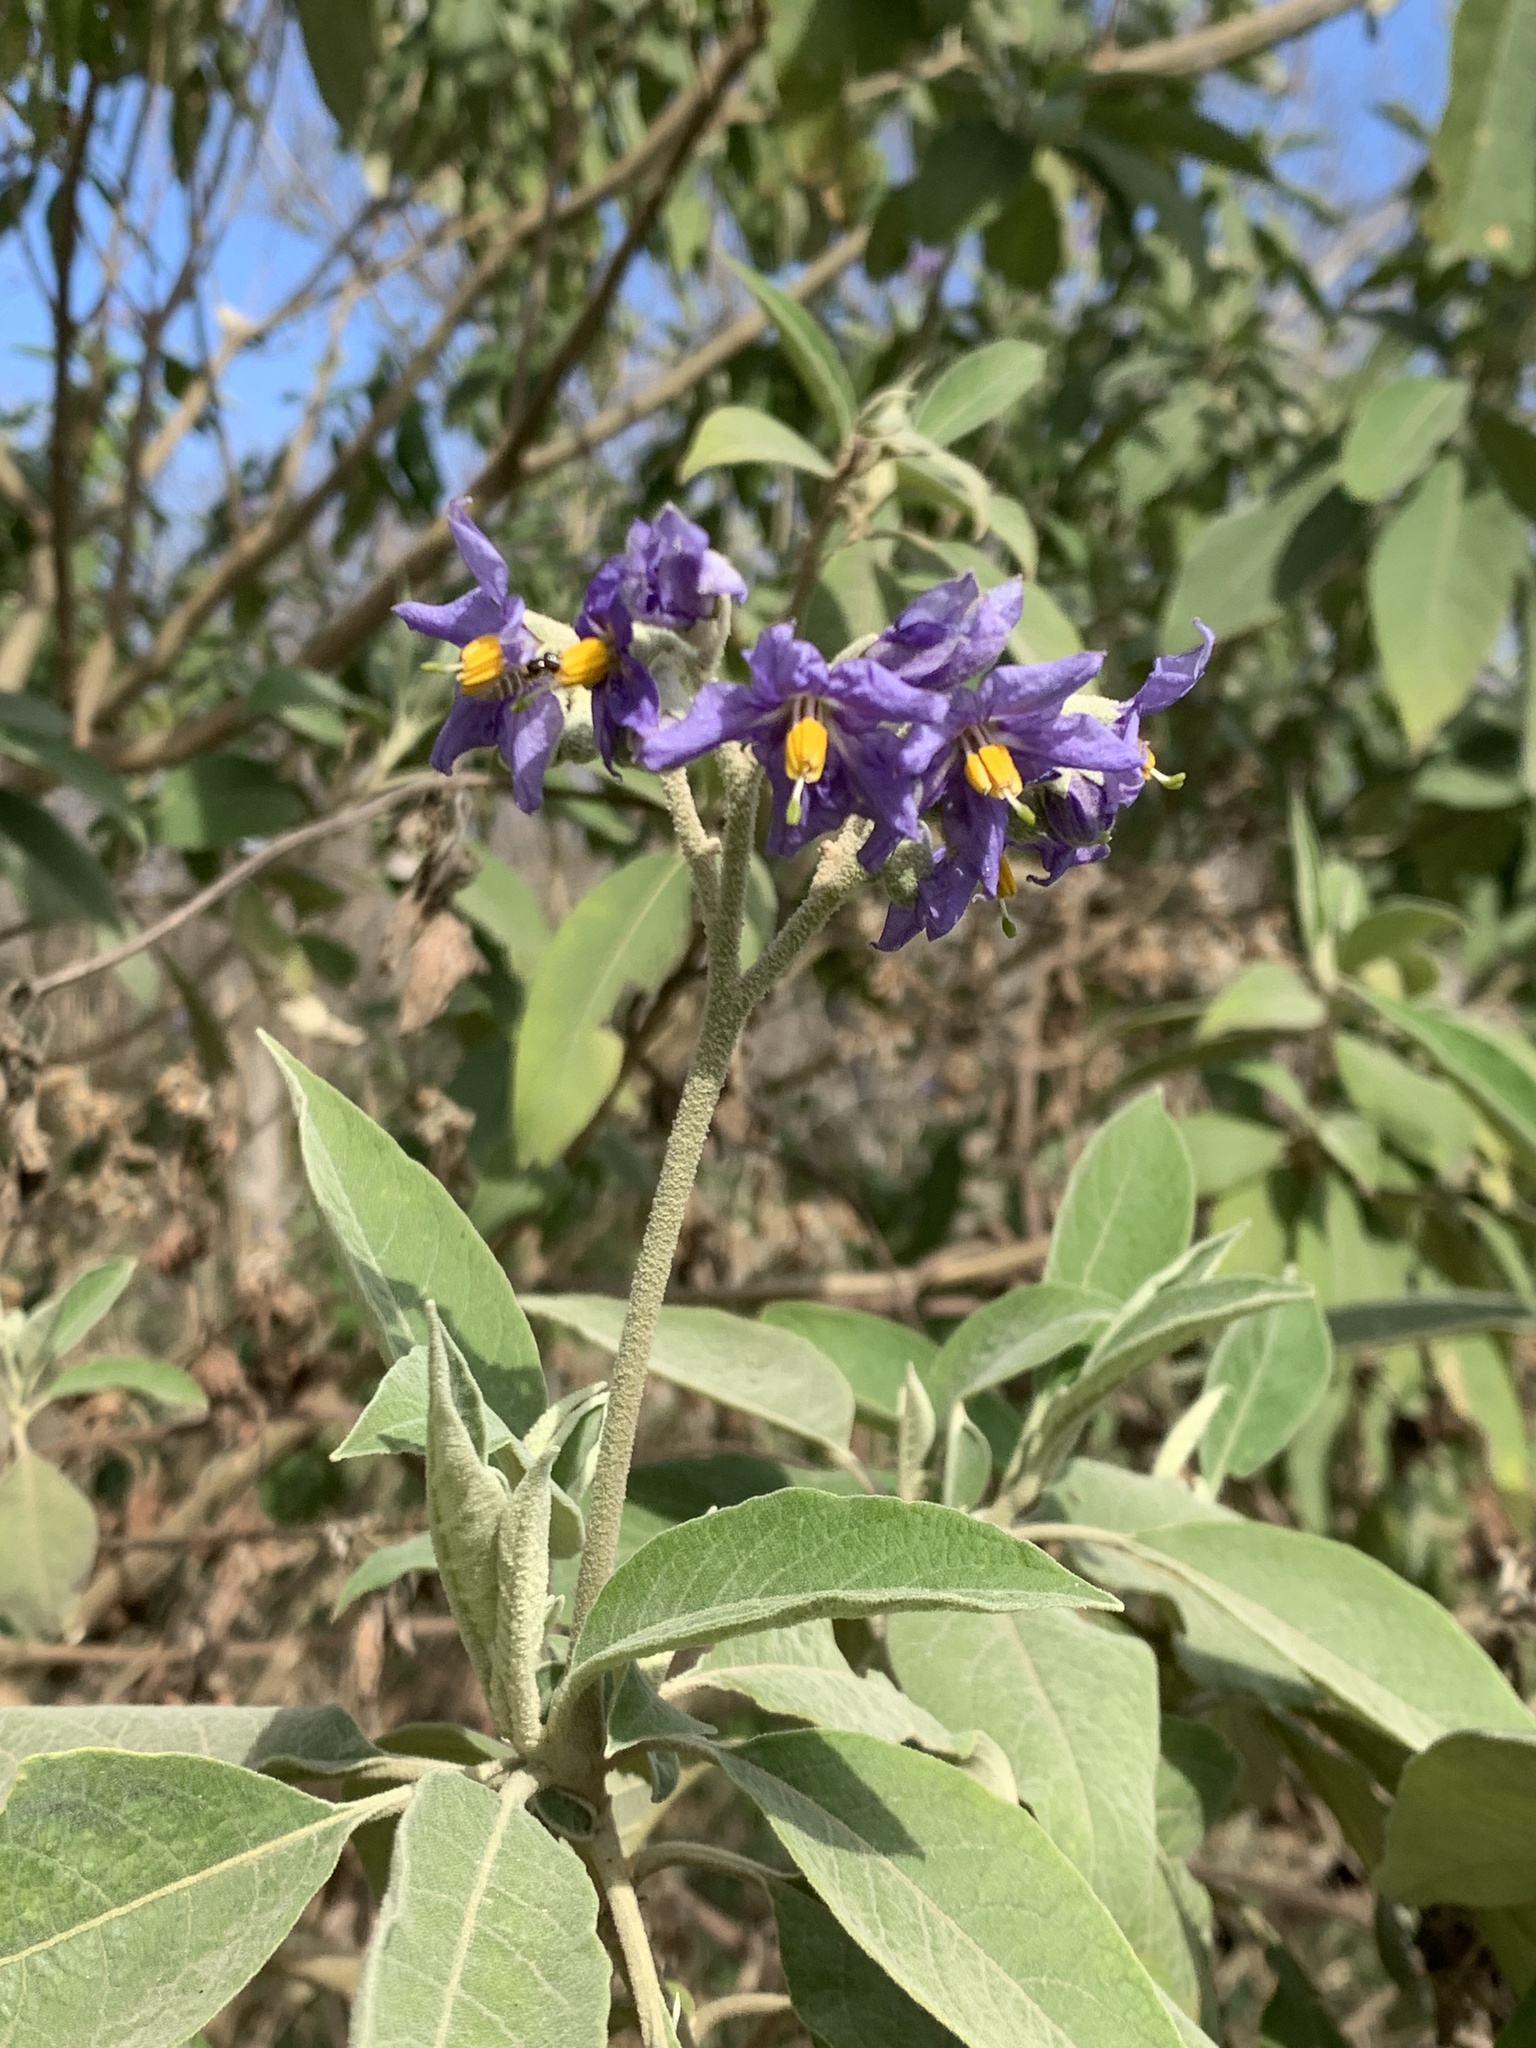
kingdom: Plantae
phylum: Tracheophyta
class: Magnoliopsida
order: Solanales
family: Solanaceae
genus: Solanum
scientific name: Solanum granulosoleprosum
